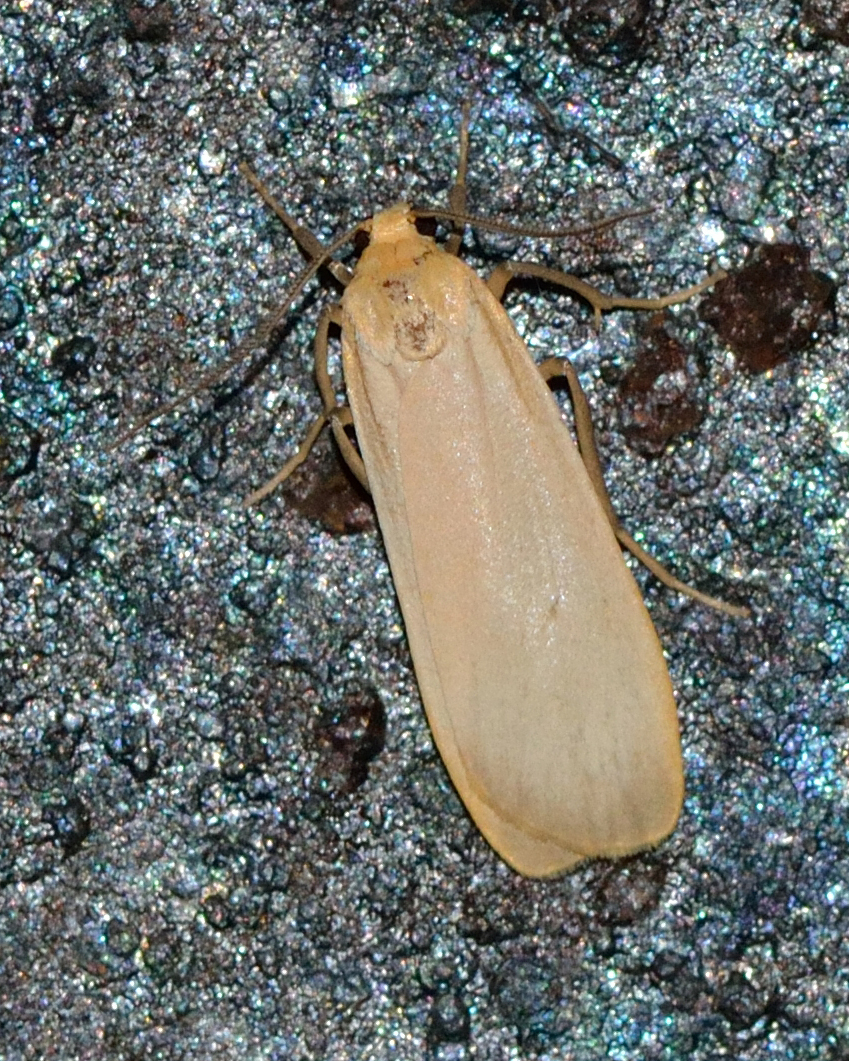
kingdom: Animalia
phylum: Arthropoda
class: Insecta
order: Lepidoptera
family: Erebidae
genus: Katha
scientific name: Katha depressa
